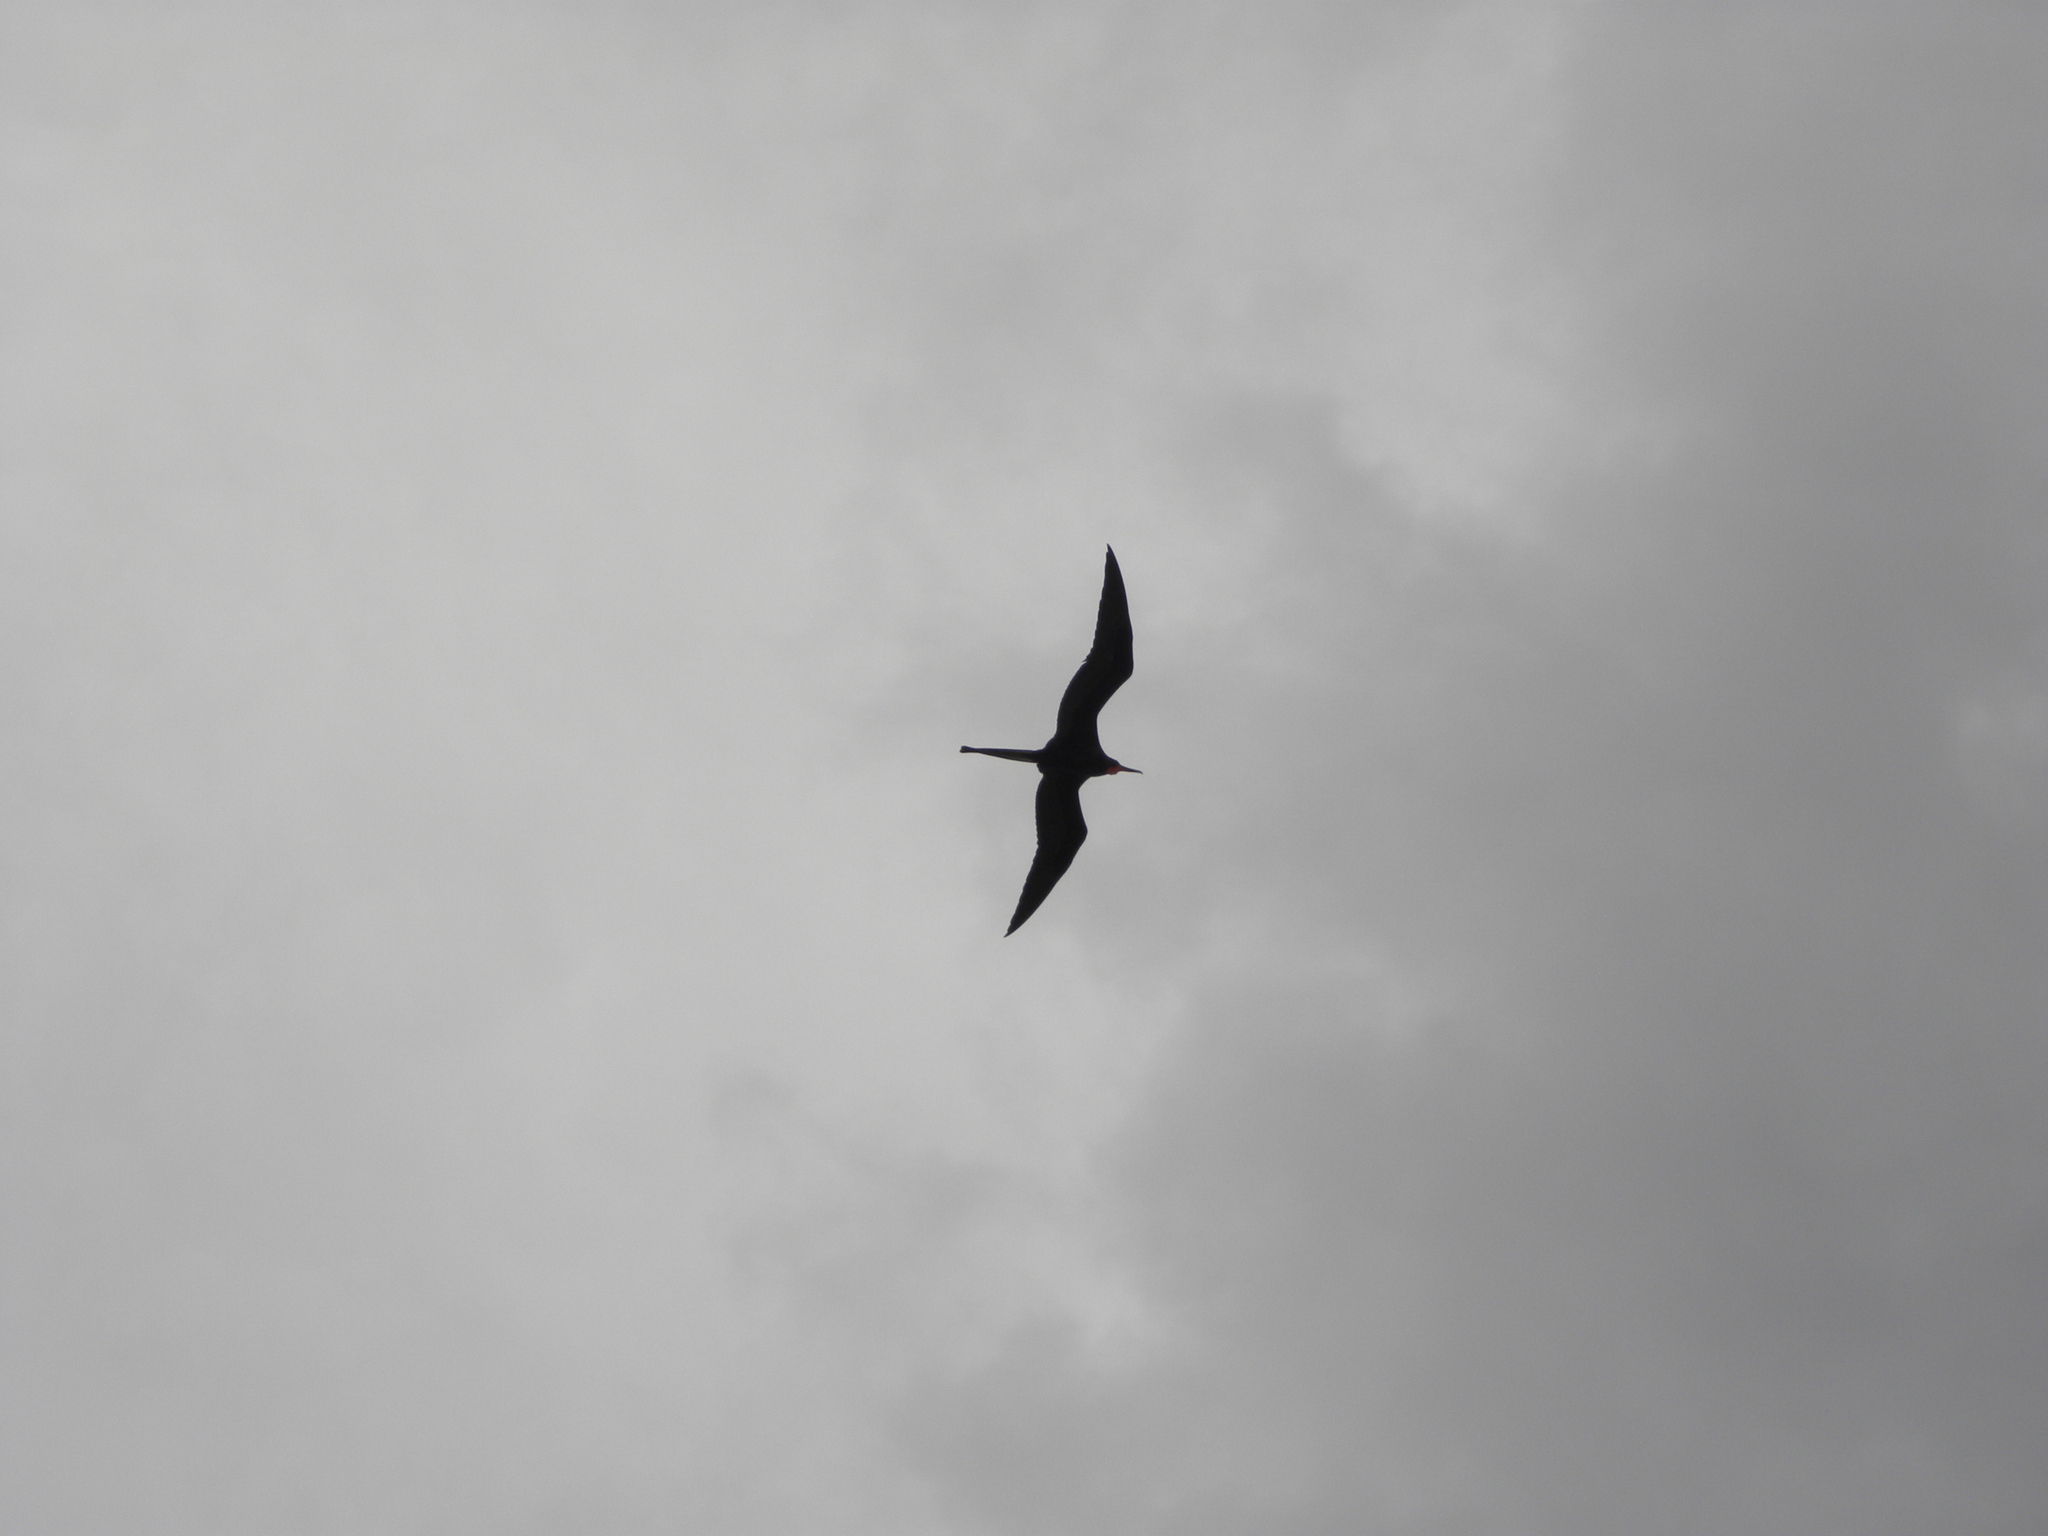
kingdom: Animalia
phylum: Chordata
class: Aves
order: Suliformes
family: Fregatidae
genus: Fregata
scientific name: Fregata magnificens
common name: Magnificent frigatebird
